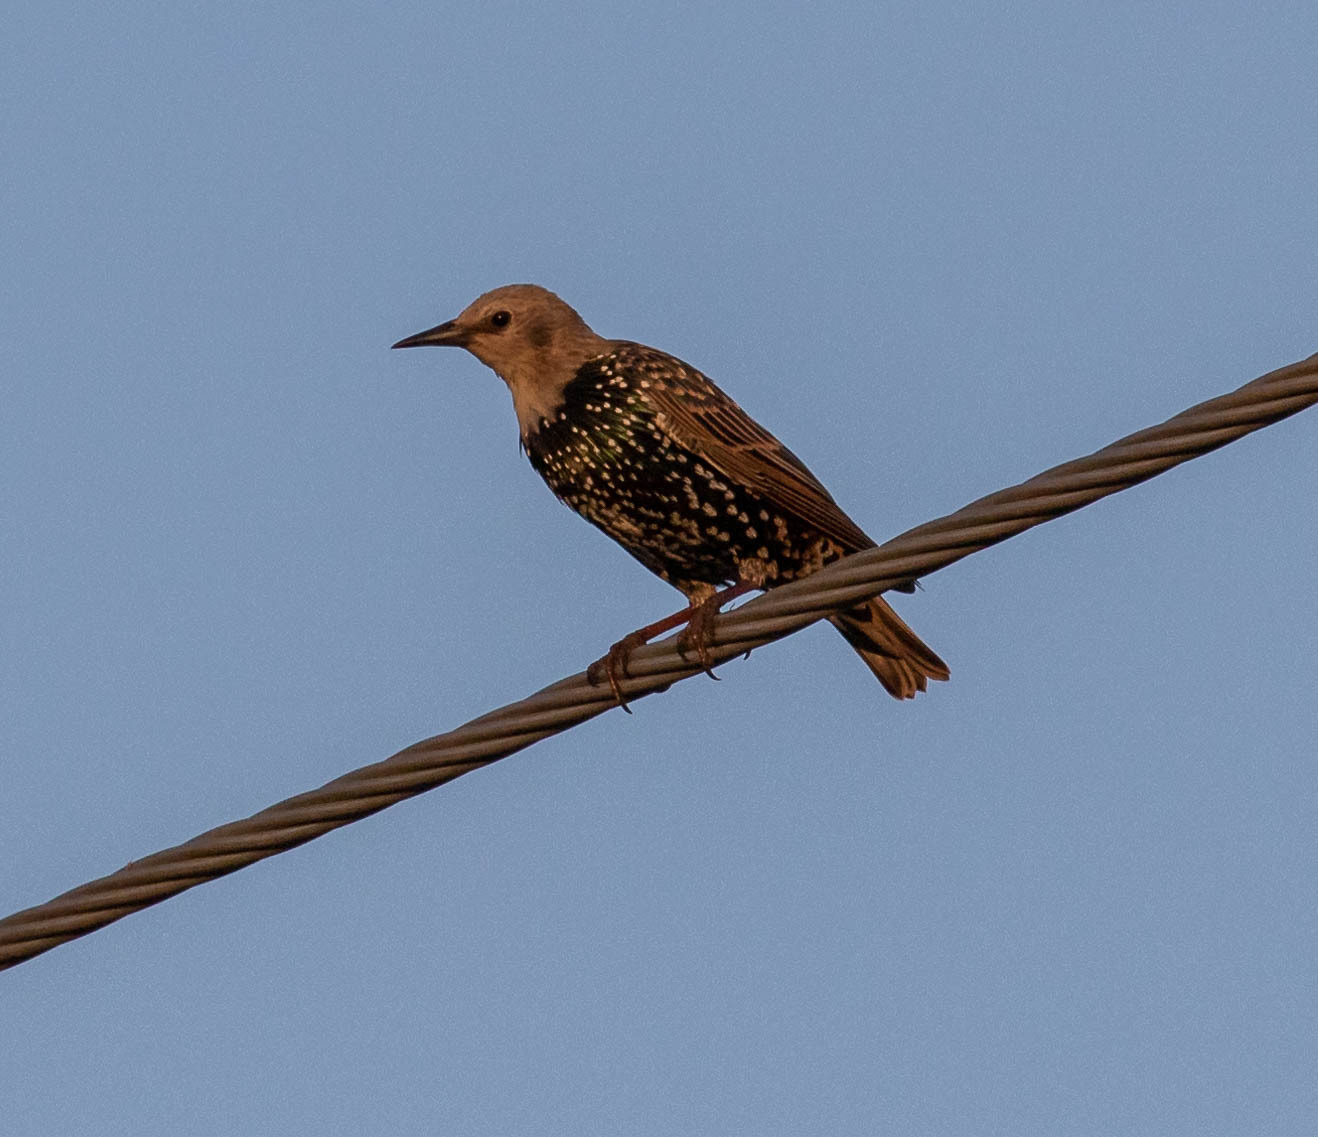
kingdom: Animalia
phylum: Chordata
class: Aves
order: Passeriformes
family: Sturnidae
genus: Sturnus
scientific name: Sturnus vulgaris
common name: Common starling
